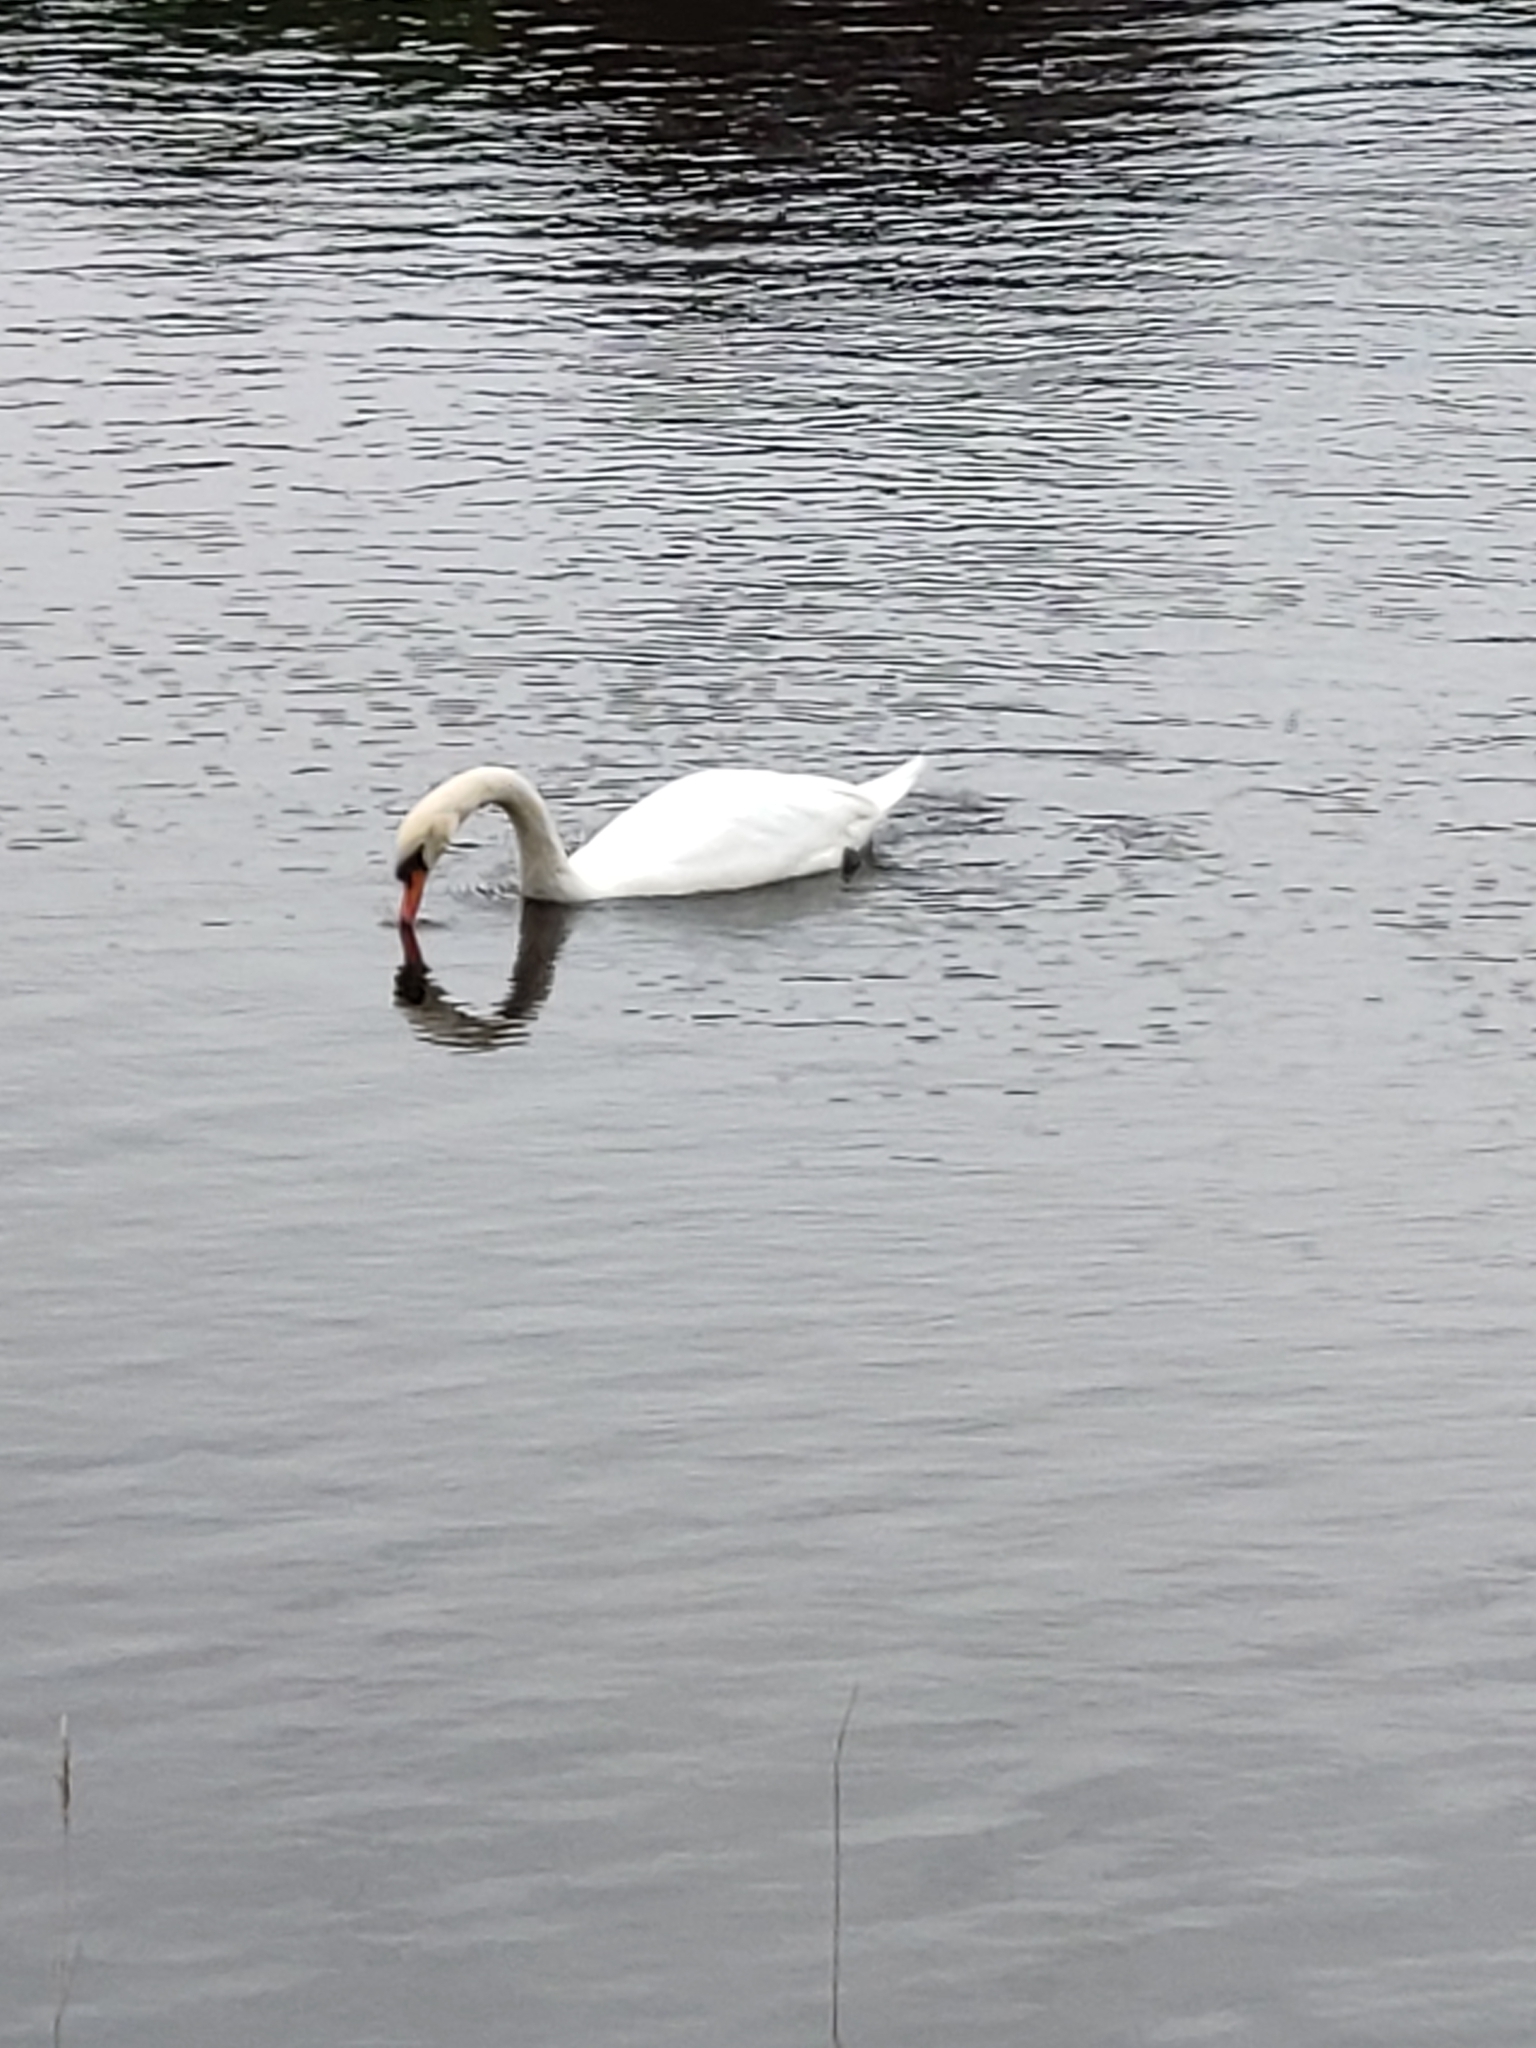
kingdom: Animalia
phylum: Chordata
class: Aves
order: Anseriformes
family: Anatidae
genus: Cygnus
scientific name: Cygnus olor
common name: Mute swan
